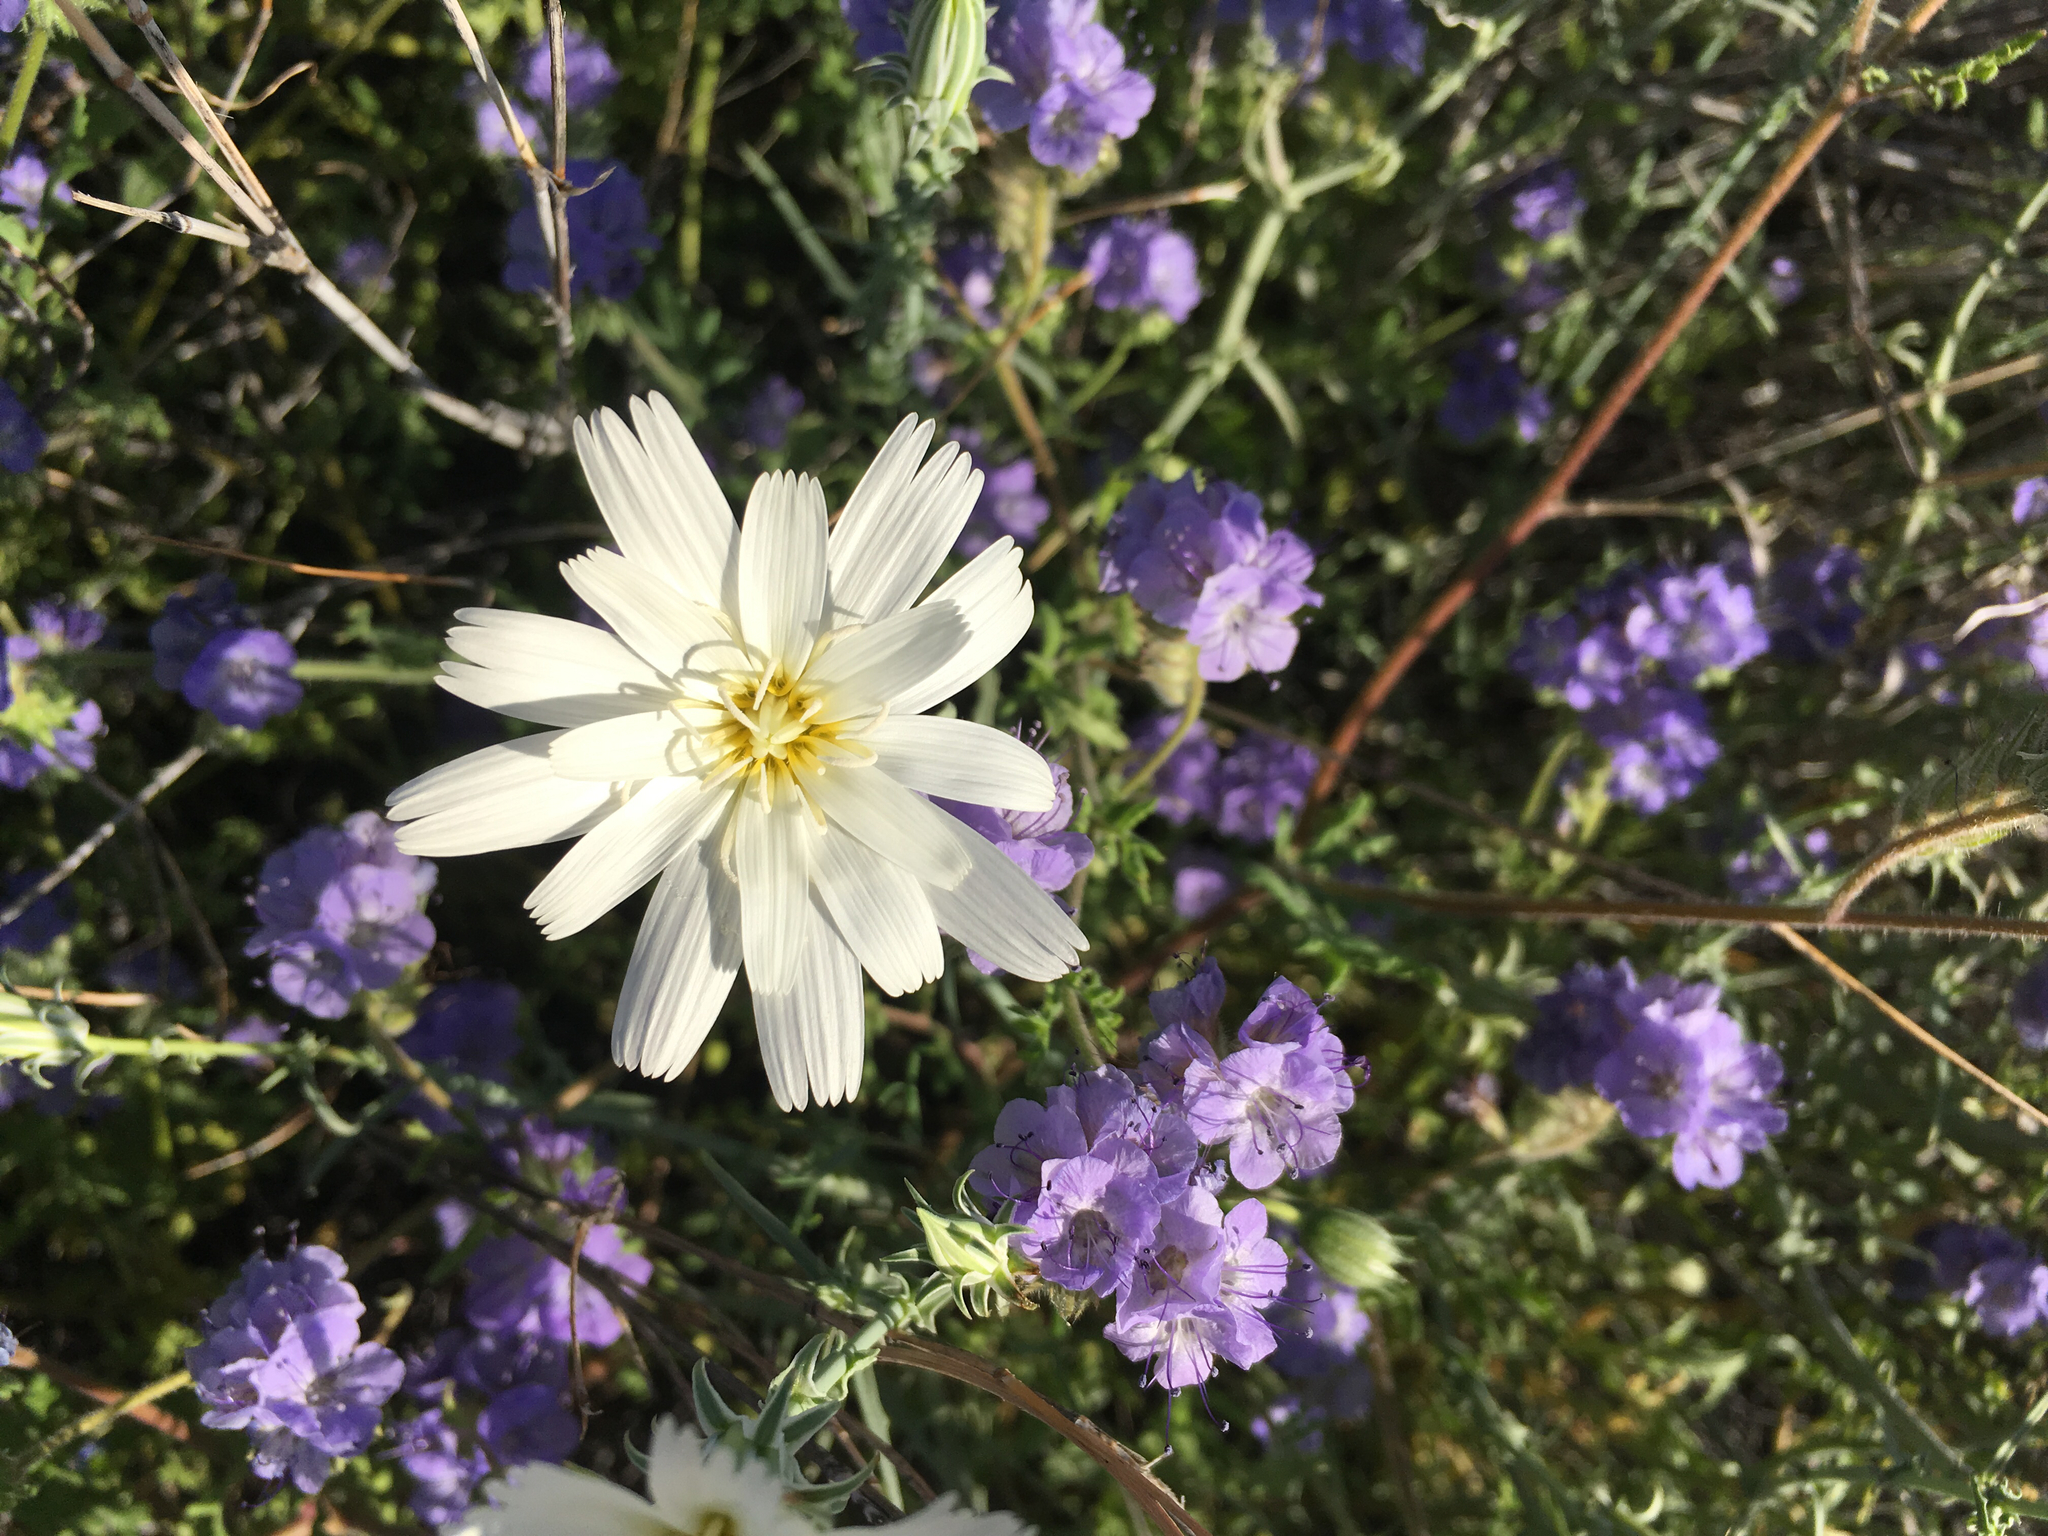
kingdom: Plantae
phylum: Tracheophyta
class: Magnoliopsida
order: Asterales
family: Asteraceae
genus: Rafinesquia
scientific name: Rafinesquia neomexicana
